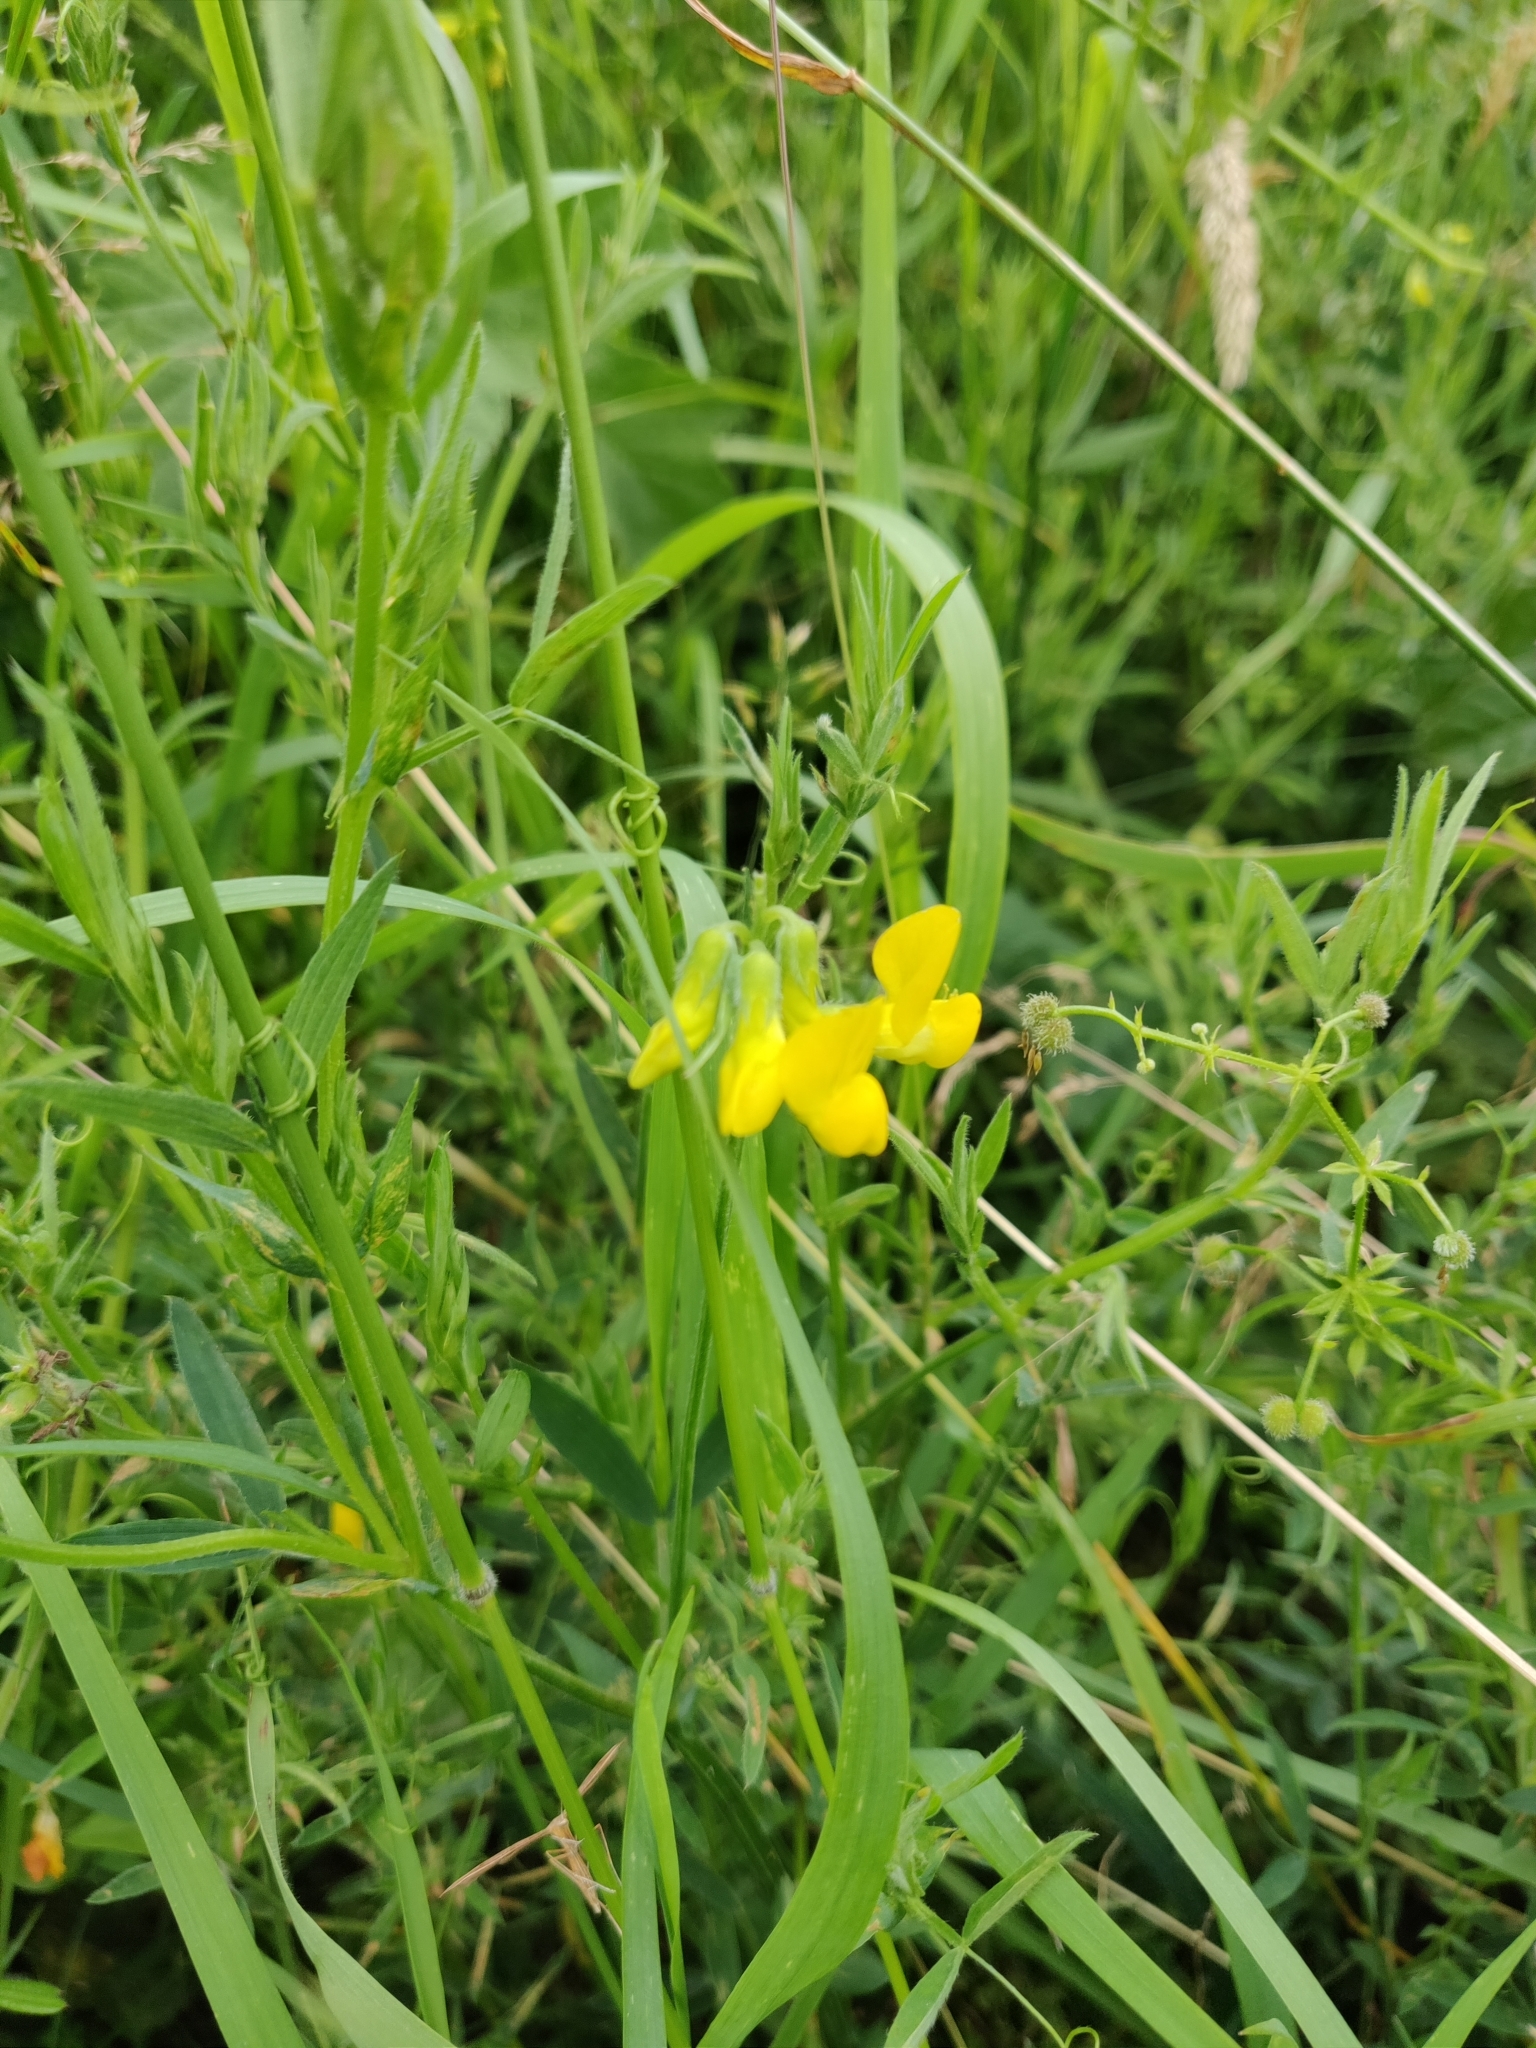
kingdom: Plantae
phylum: Tracheophyta
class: Magnoliopsida
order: Fabales
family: Fabaceae
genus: Lathyrus
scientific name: Lathyrus pratensis
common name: Meadow vetchling
